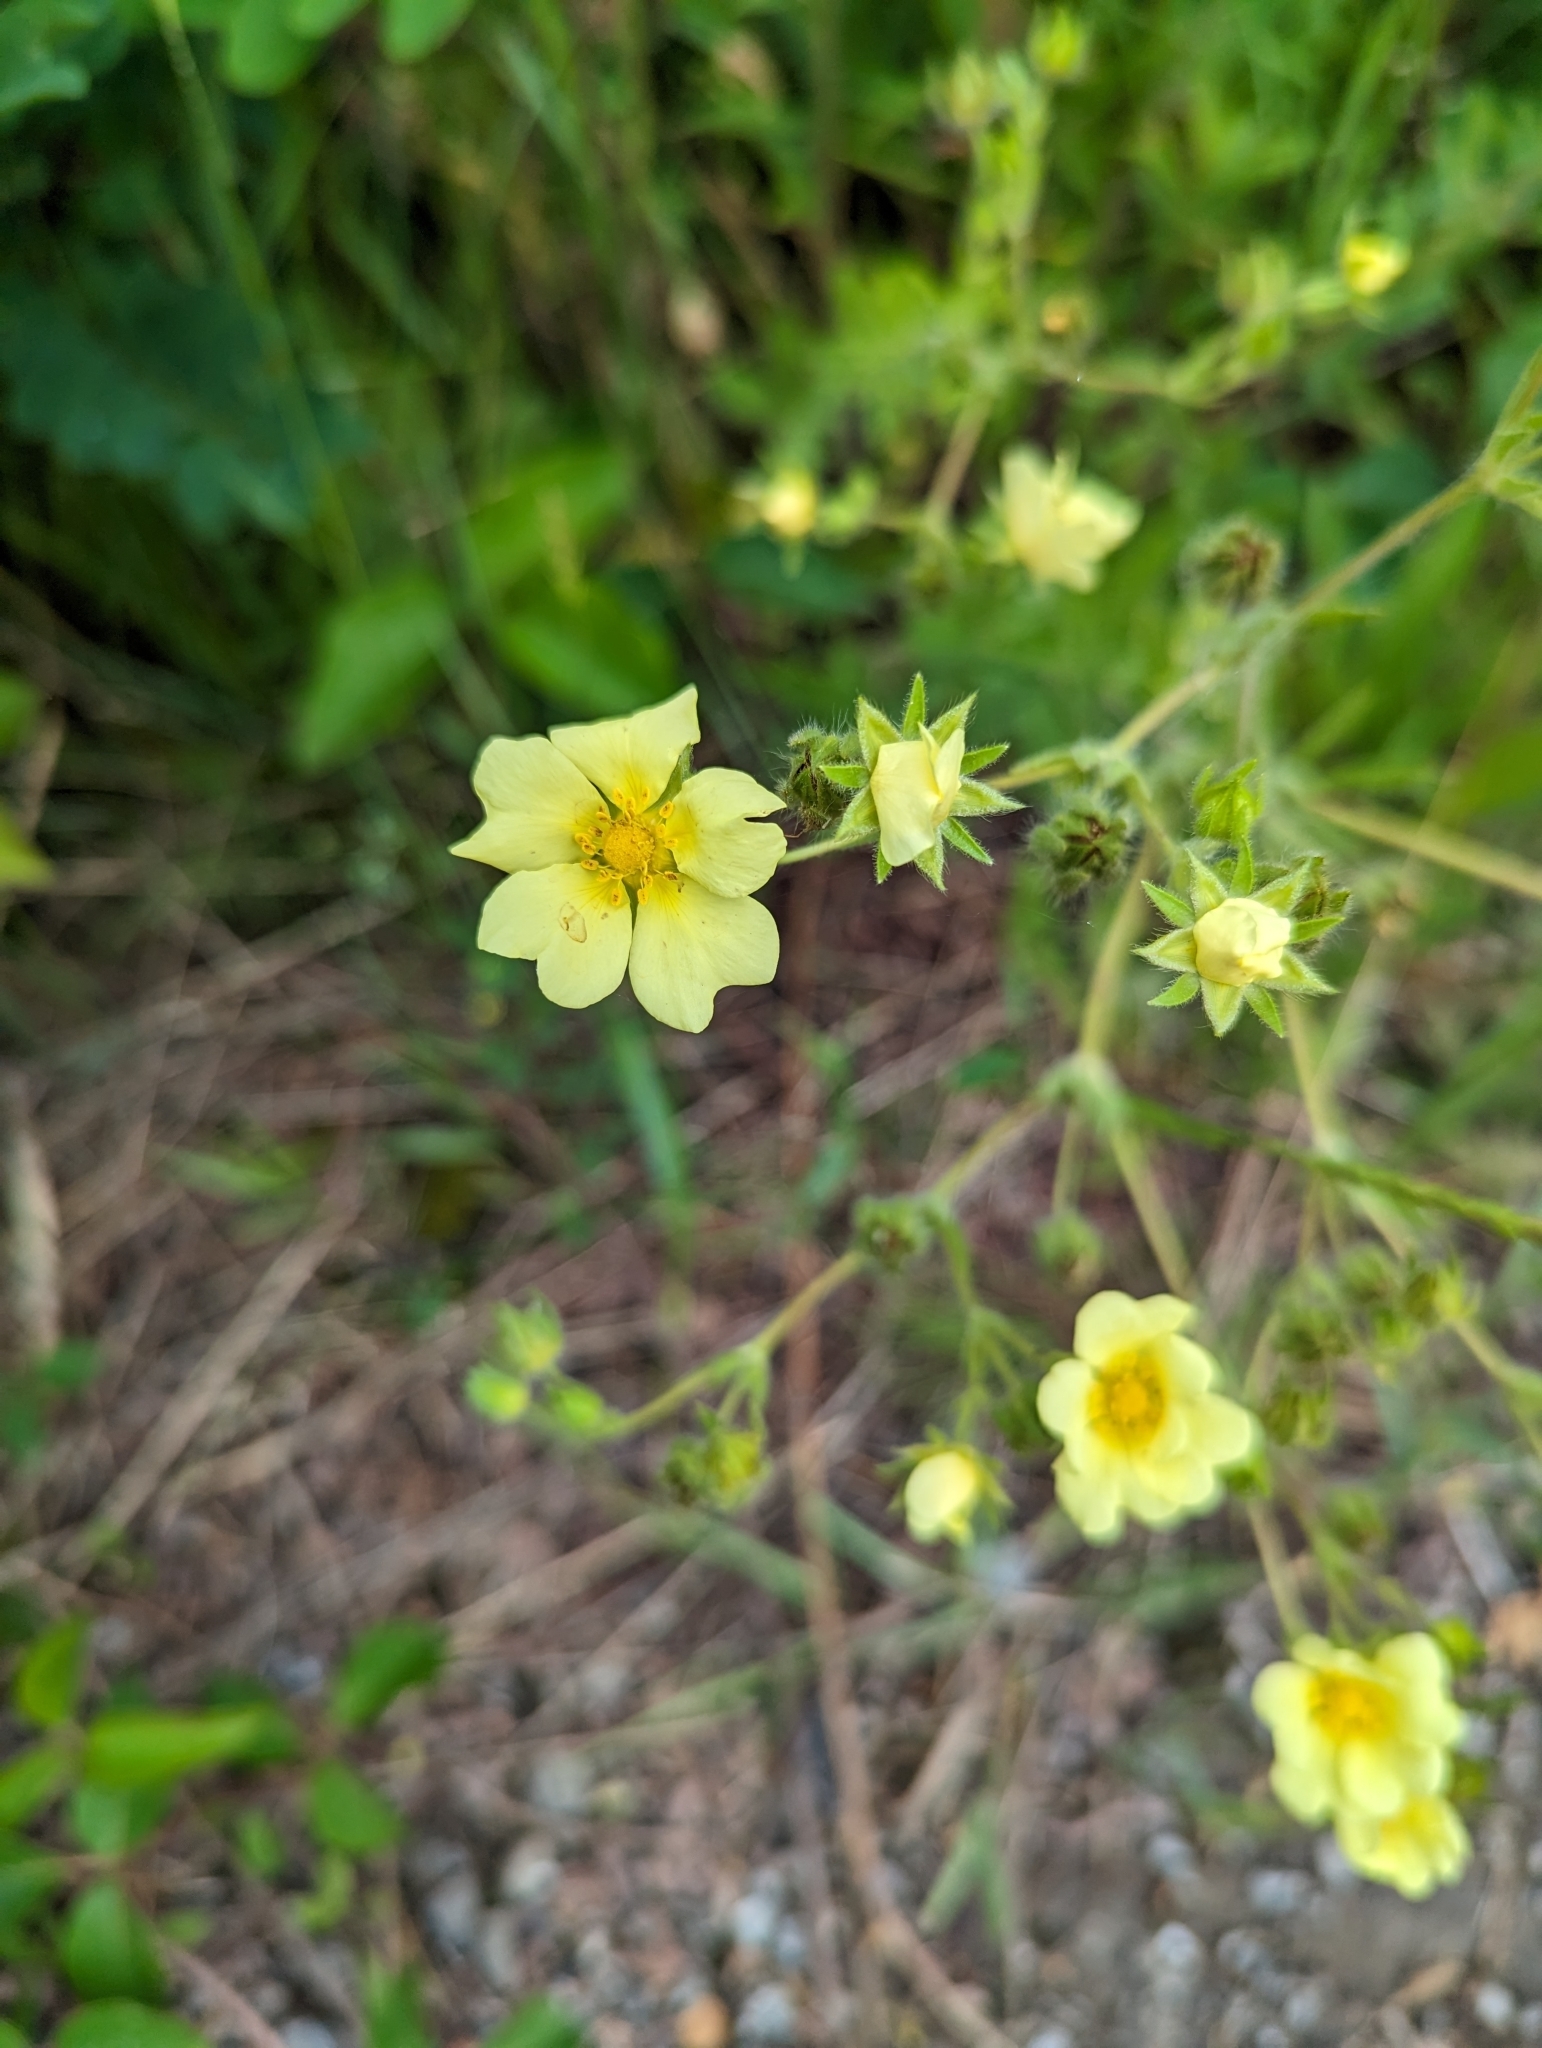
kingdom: Plantae
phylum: Tracheophyta
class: Magnoliopsida
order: Rosales
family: Rosaceae
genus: Potentilla
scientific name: Potentilla recta
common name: Sulphur cinquefoil
